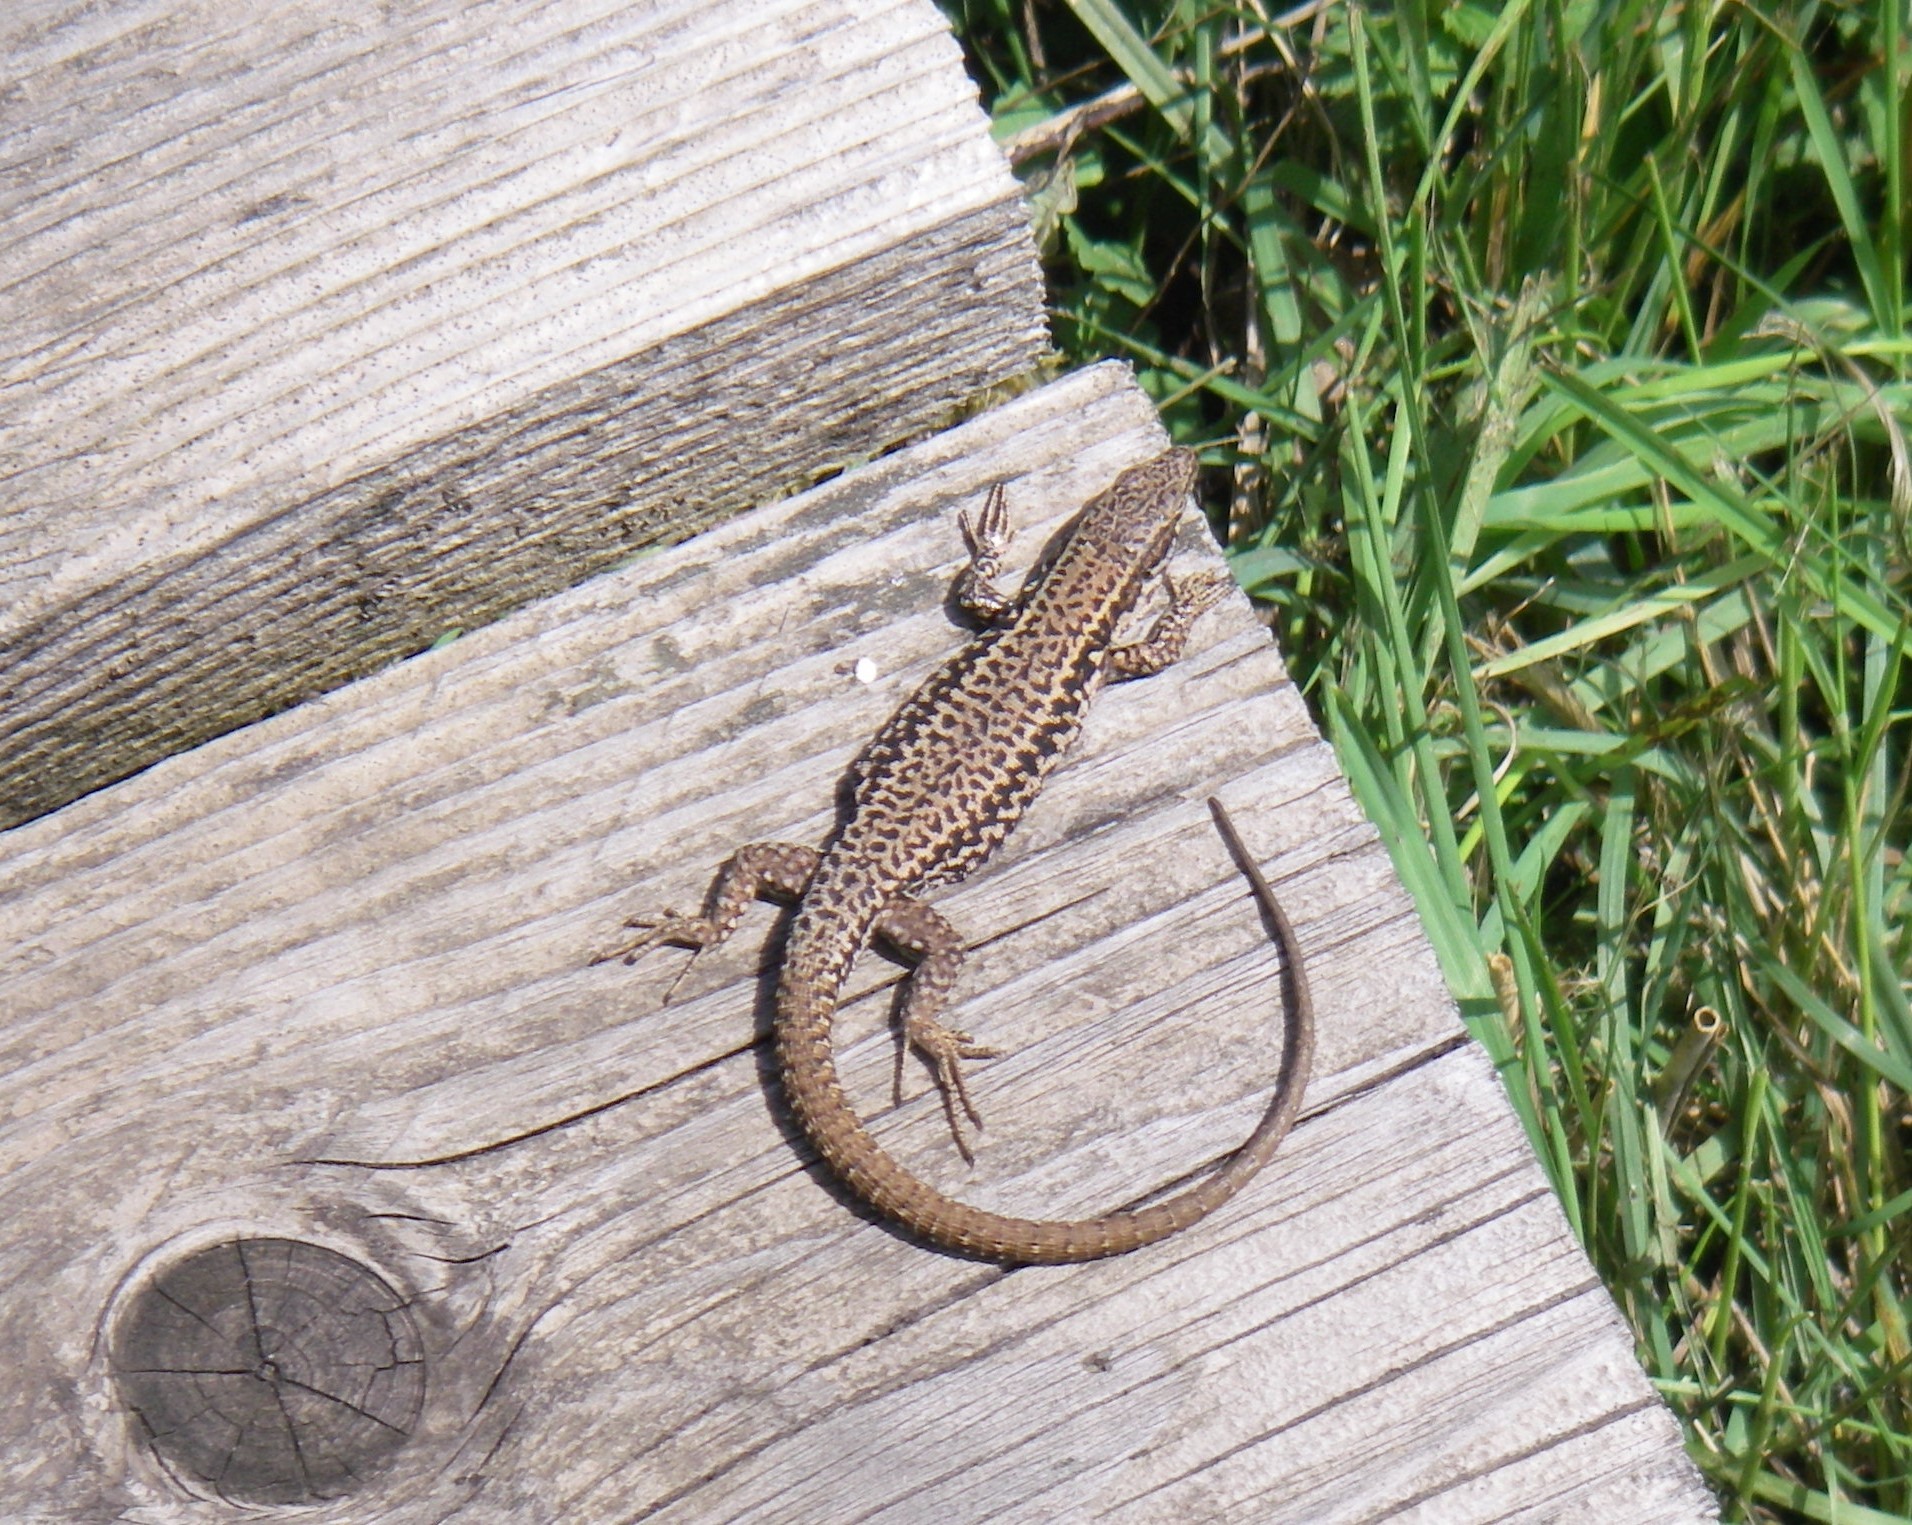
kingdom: Animalia
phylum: Chordata
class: Squamata
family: Lacertidae
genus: Podarcis
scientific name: Podarcis muralis
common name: Common wall lizard
